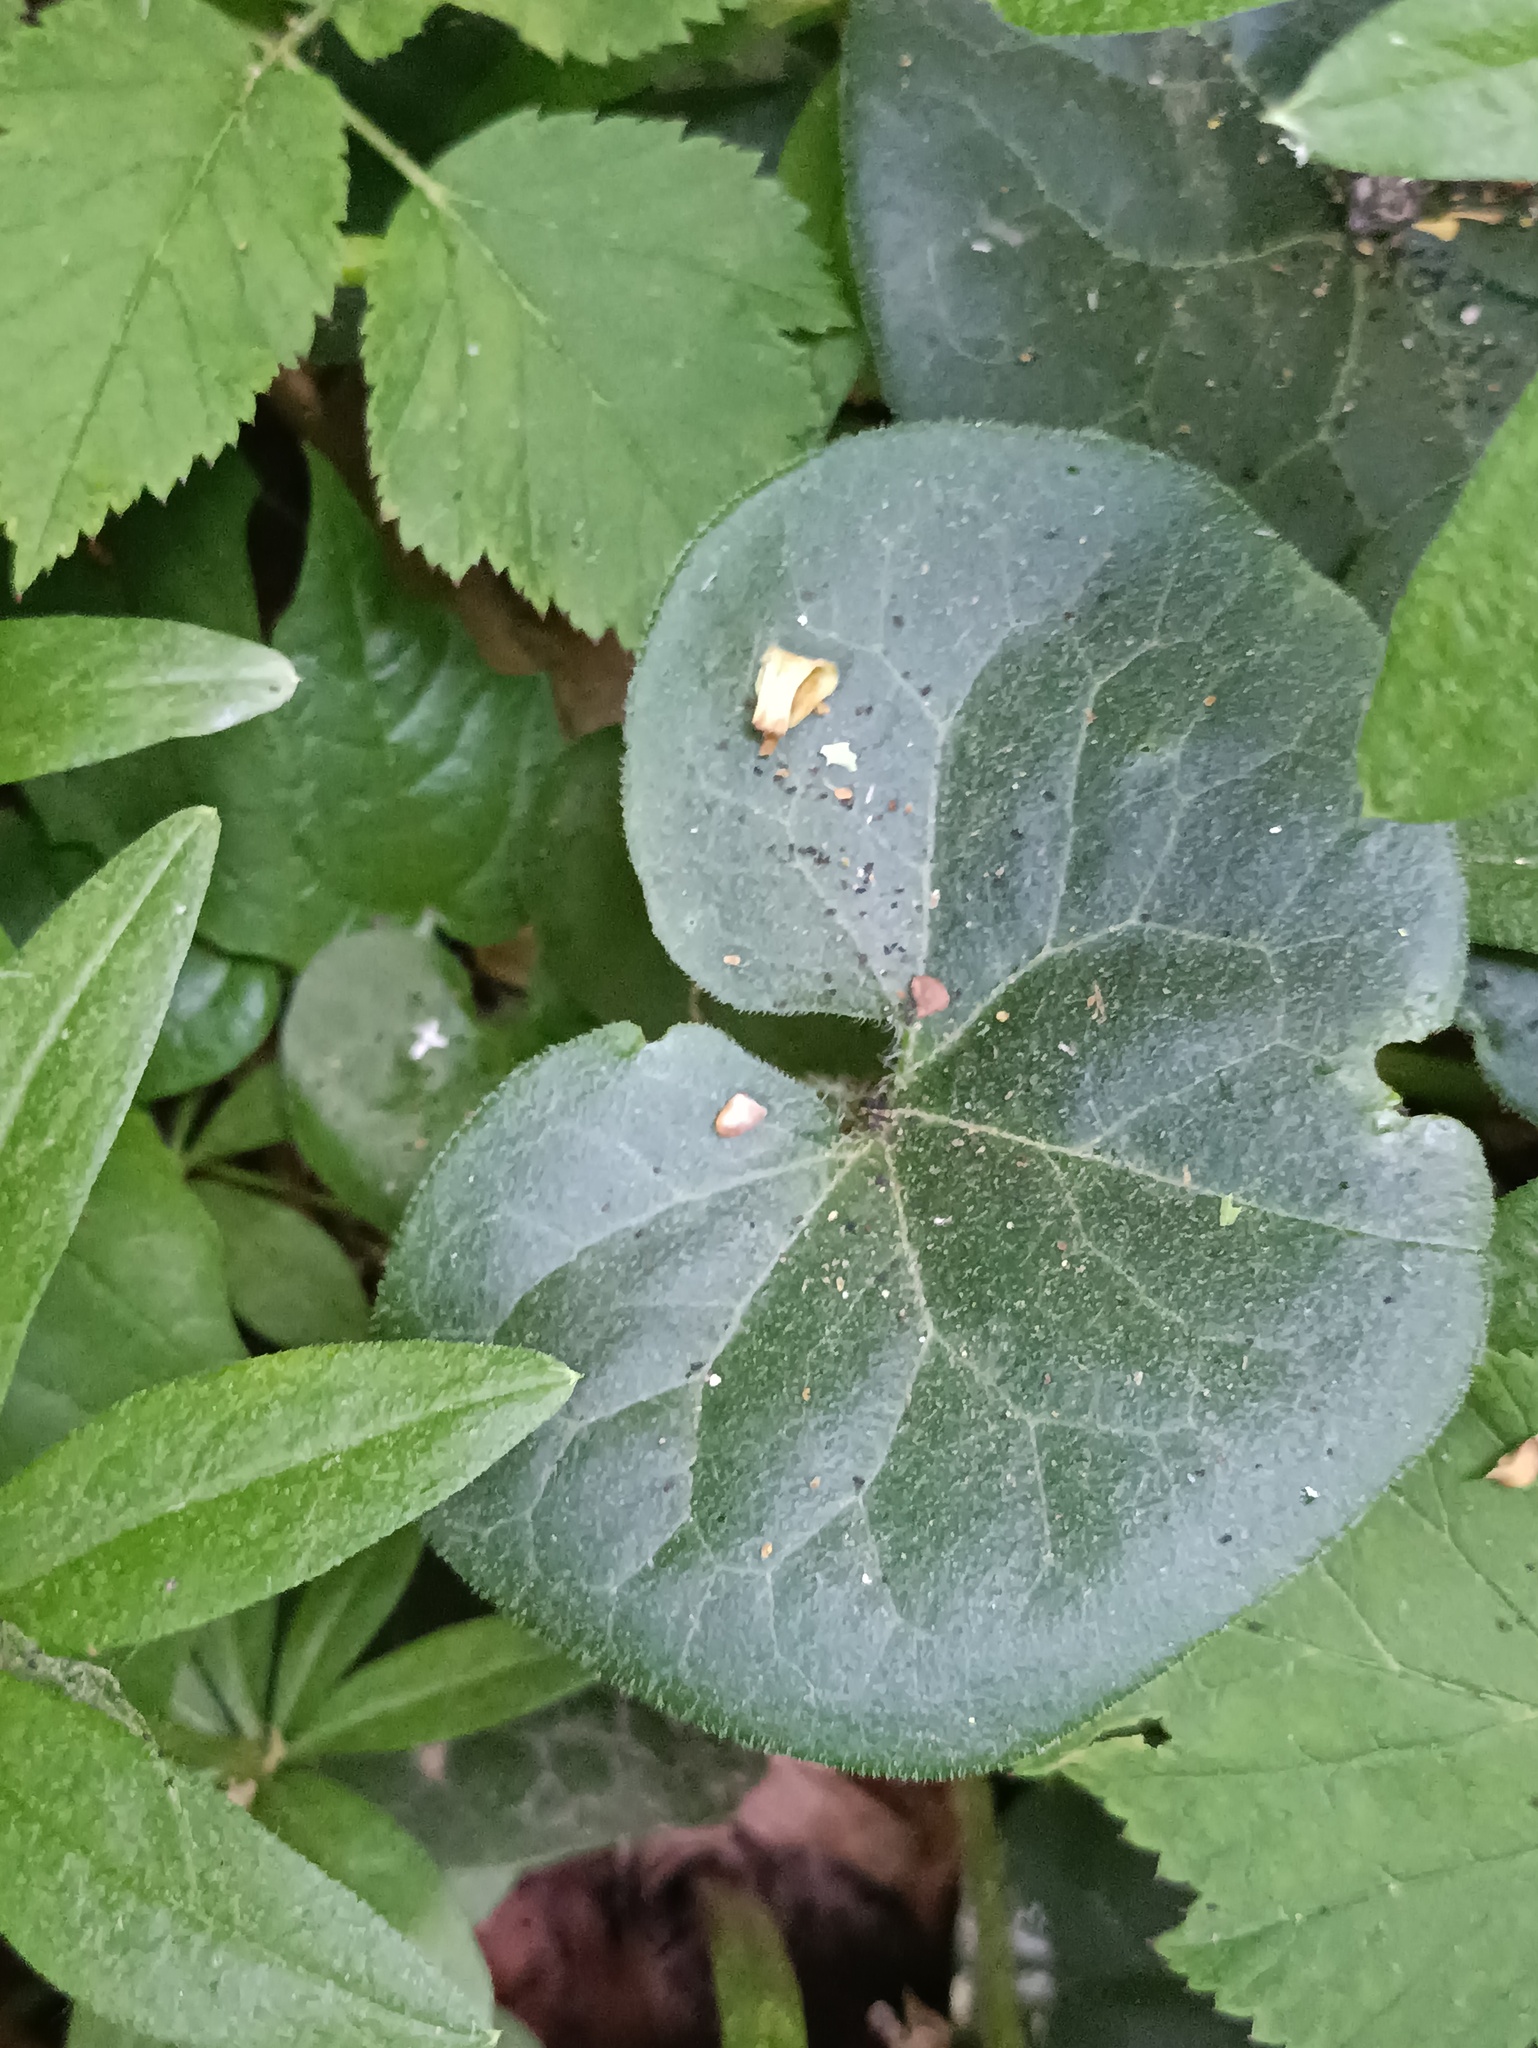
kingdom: Plantae
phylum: Tracheophyta
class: Magnoliopsida
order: Piperales
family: Aristolochiaceae
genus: Asarum
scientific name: Asarum europaeum
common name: Asarabacca
